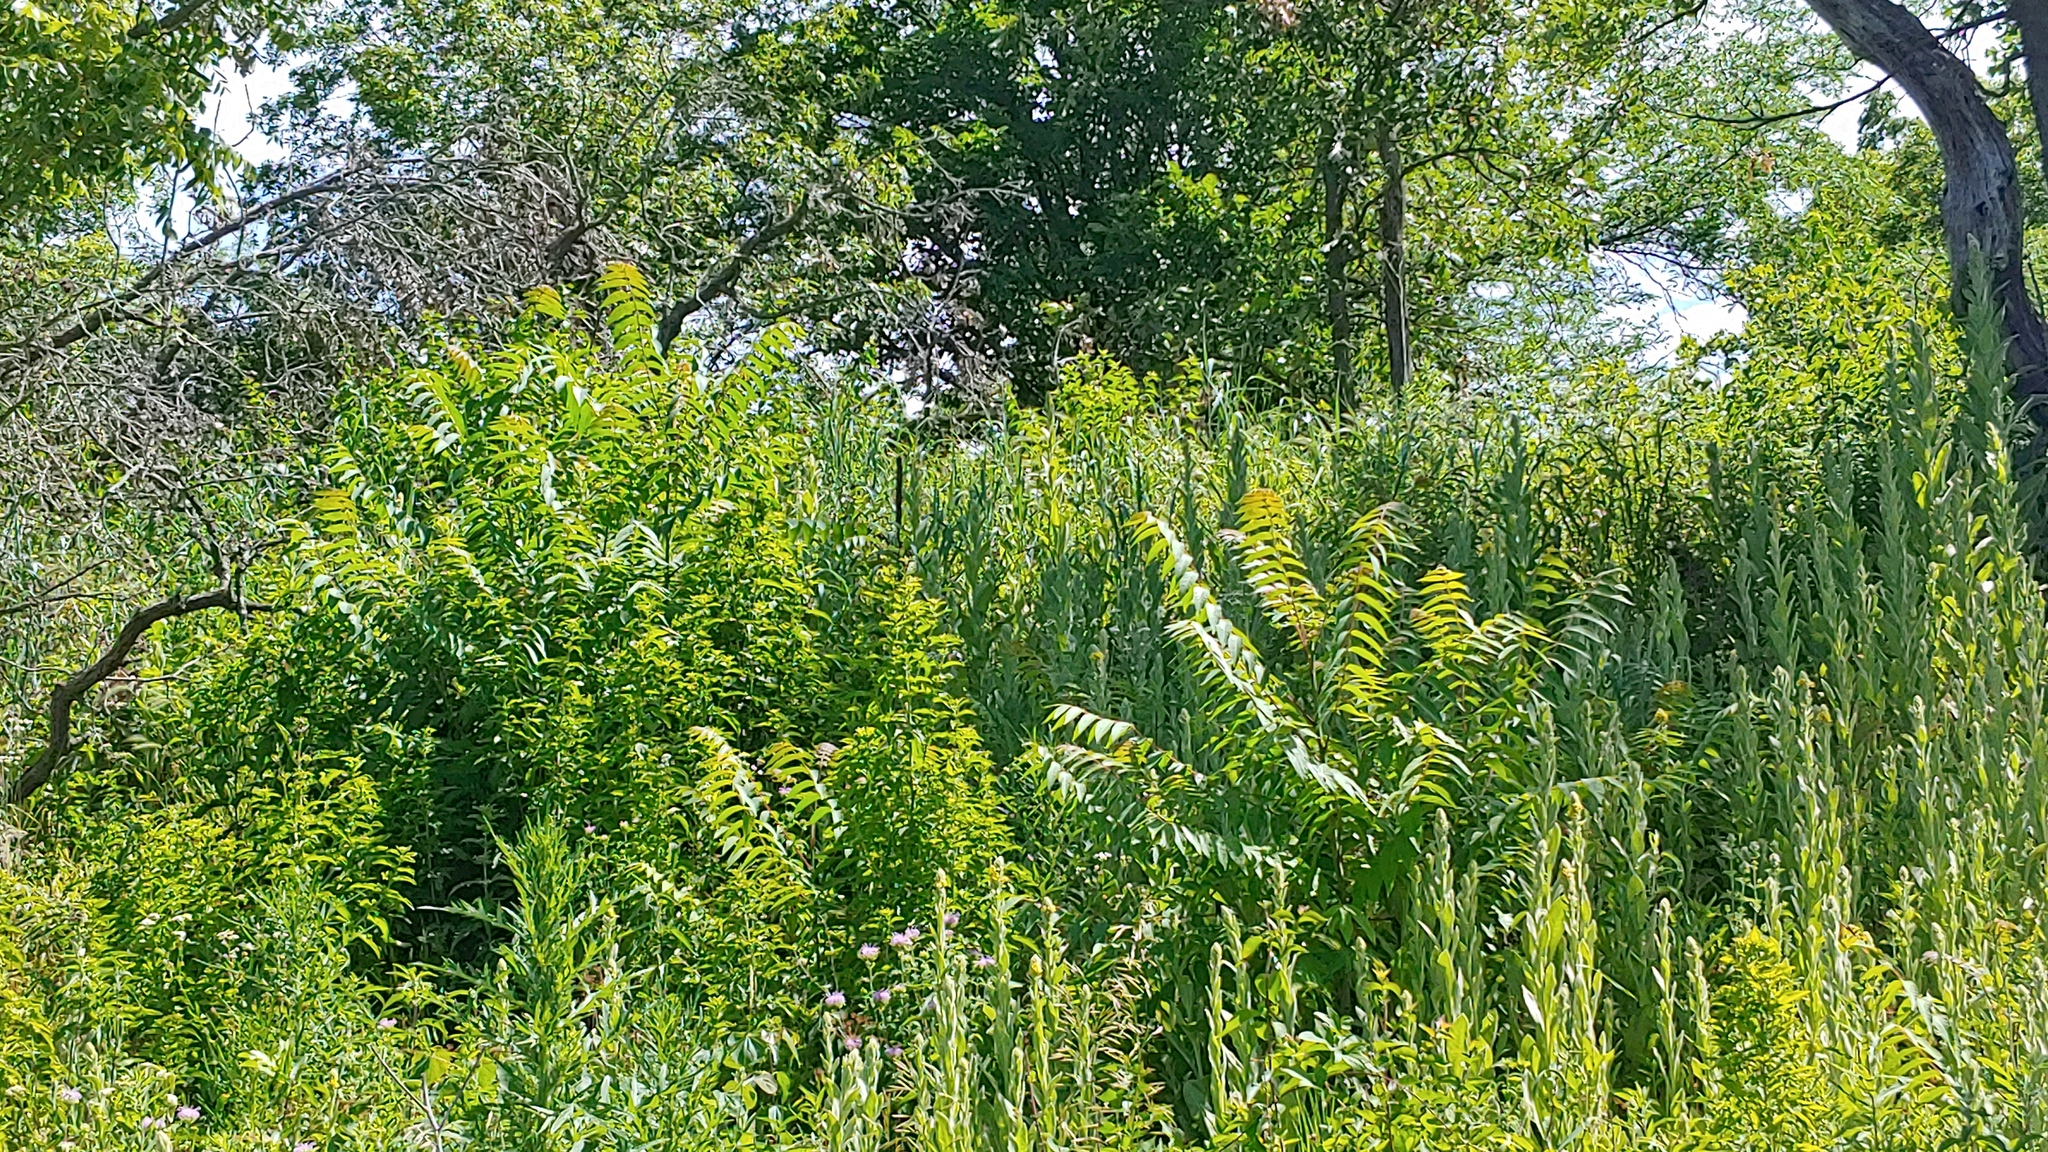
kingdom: Plantae
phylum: Tracheophyta
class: Magnoliopsida
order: Sapindales
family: Simaroubaceae
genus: Ailanthus
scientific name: Ailanthus altissima
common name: Tree-of-heaven
